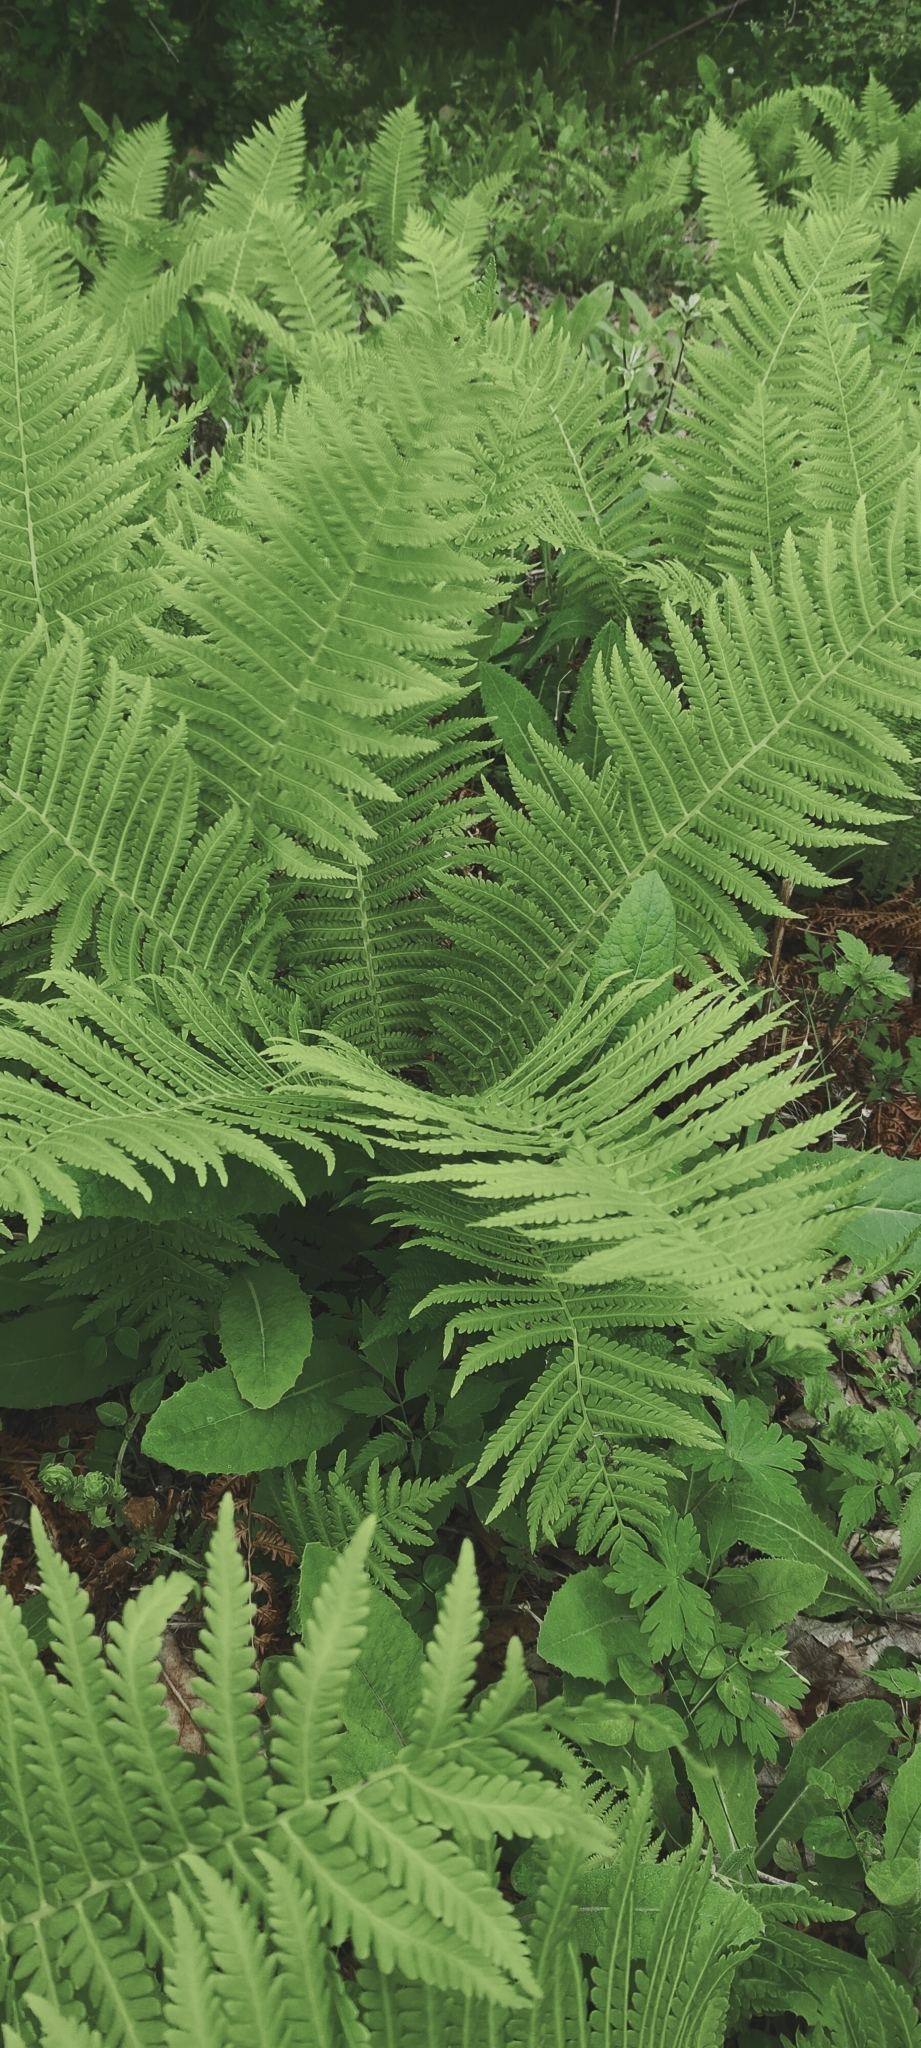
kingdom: Plantae
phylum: Tracheophyta
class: Polypodiopsida
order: Polypodiales
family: Onocleaceae
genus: Matteuccia
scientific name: Matteuccia struthiopteris
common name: Ostrich fern
